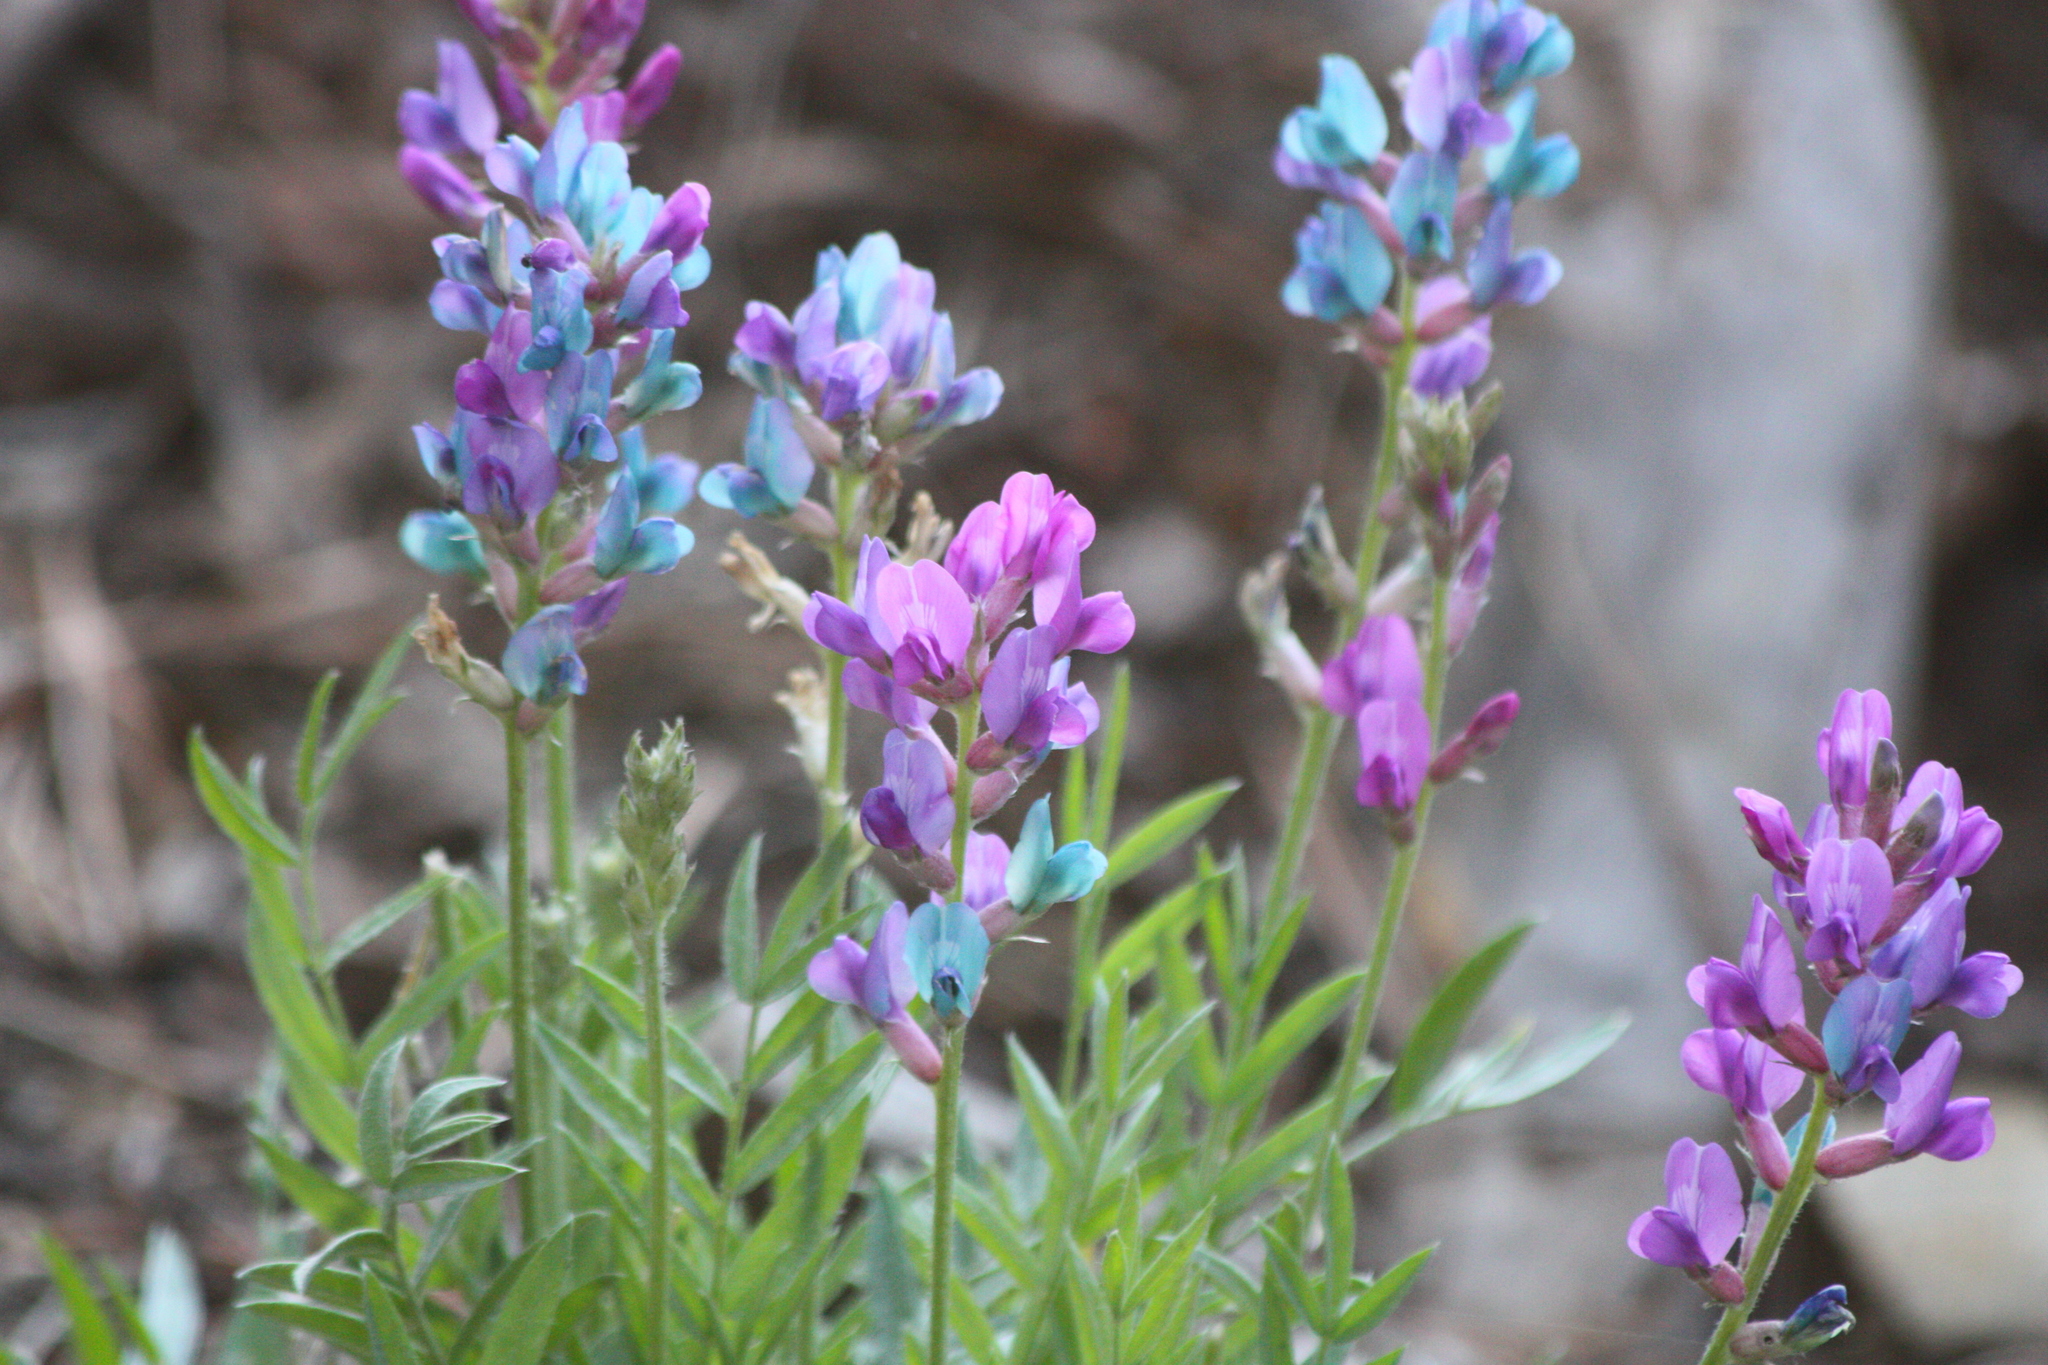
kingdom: Plantae
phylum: Tracheophyta
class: Magnoliopsida
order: Fabales
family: Fabaceae
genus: Oxytropis
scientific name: Oxytropis lambertii
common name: Purple locoweed
